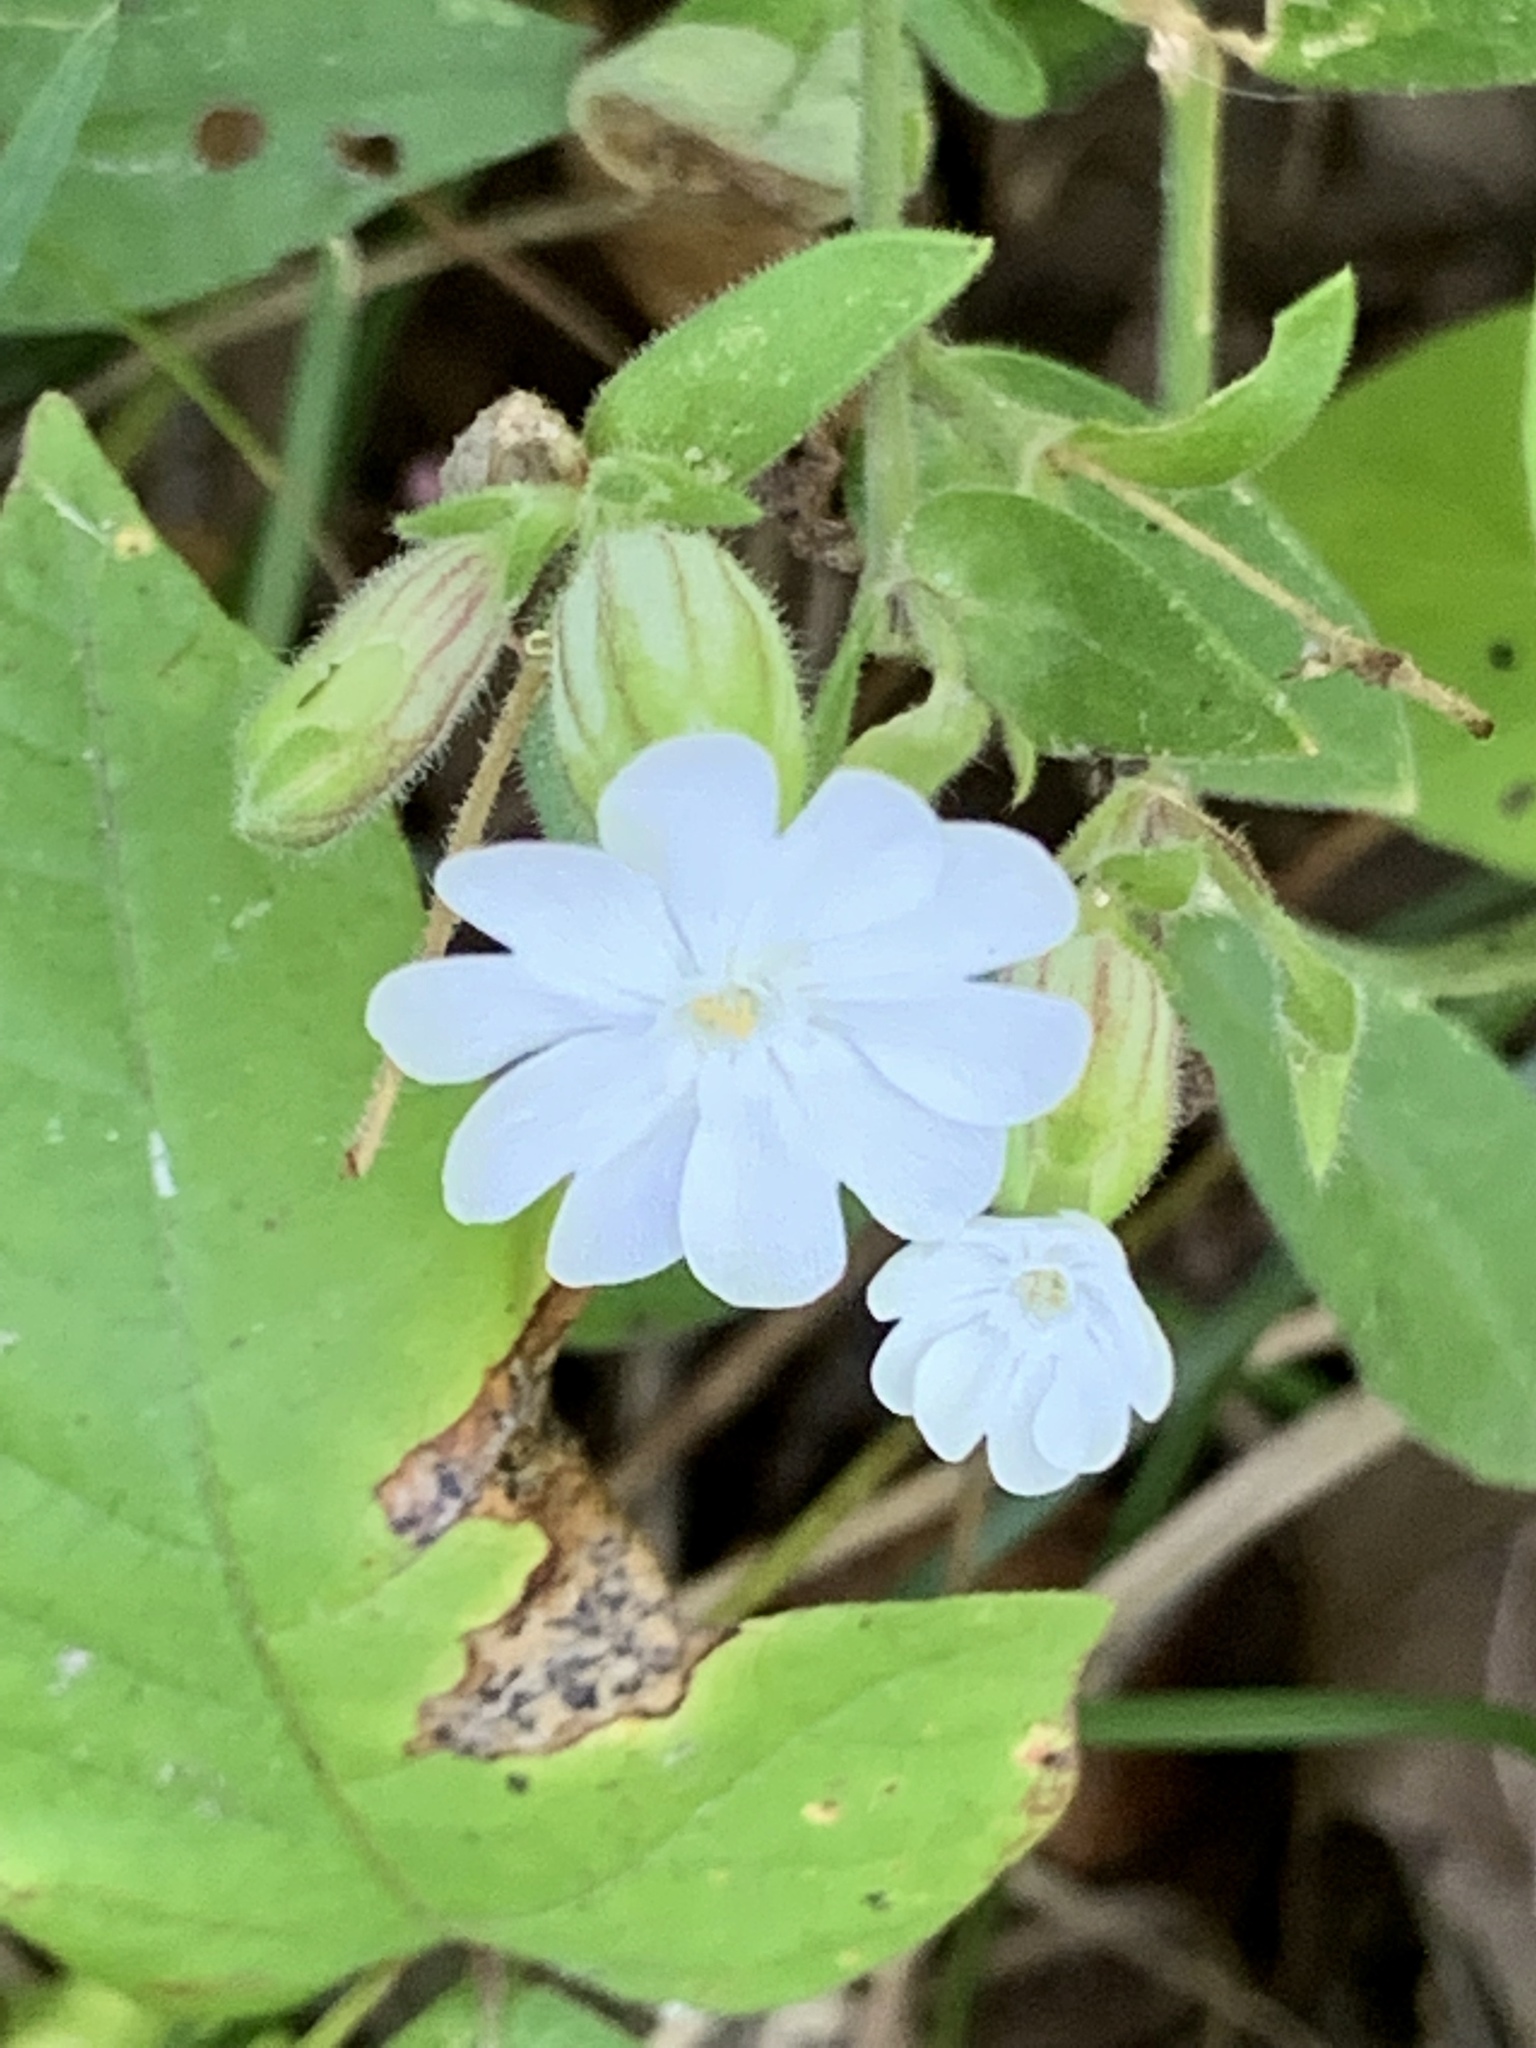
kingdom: Plantae
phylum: Tracheophyta
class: Magnoliopsida
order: Caryophyllales
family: Caryophyllaceae
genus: Silene
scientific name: Silene latifolia
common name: White campion
